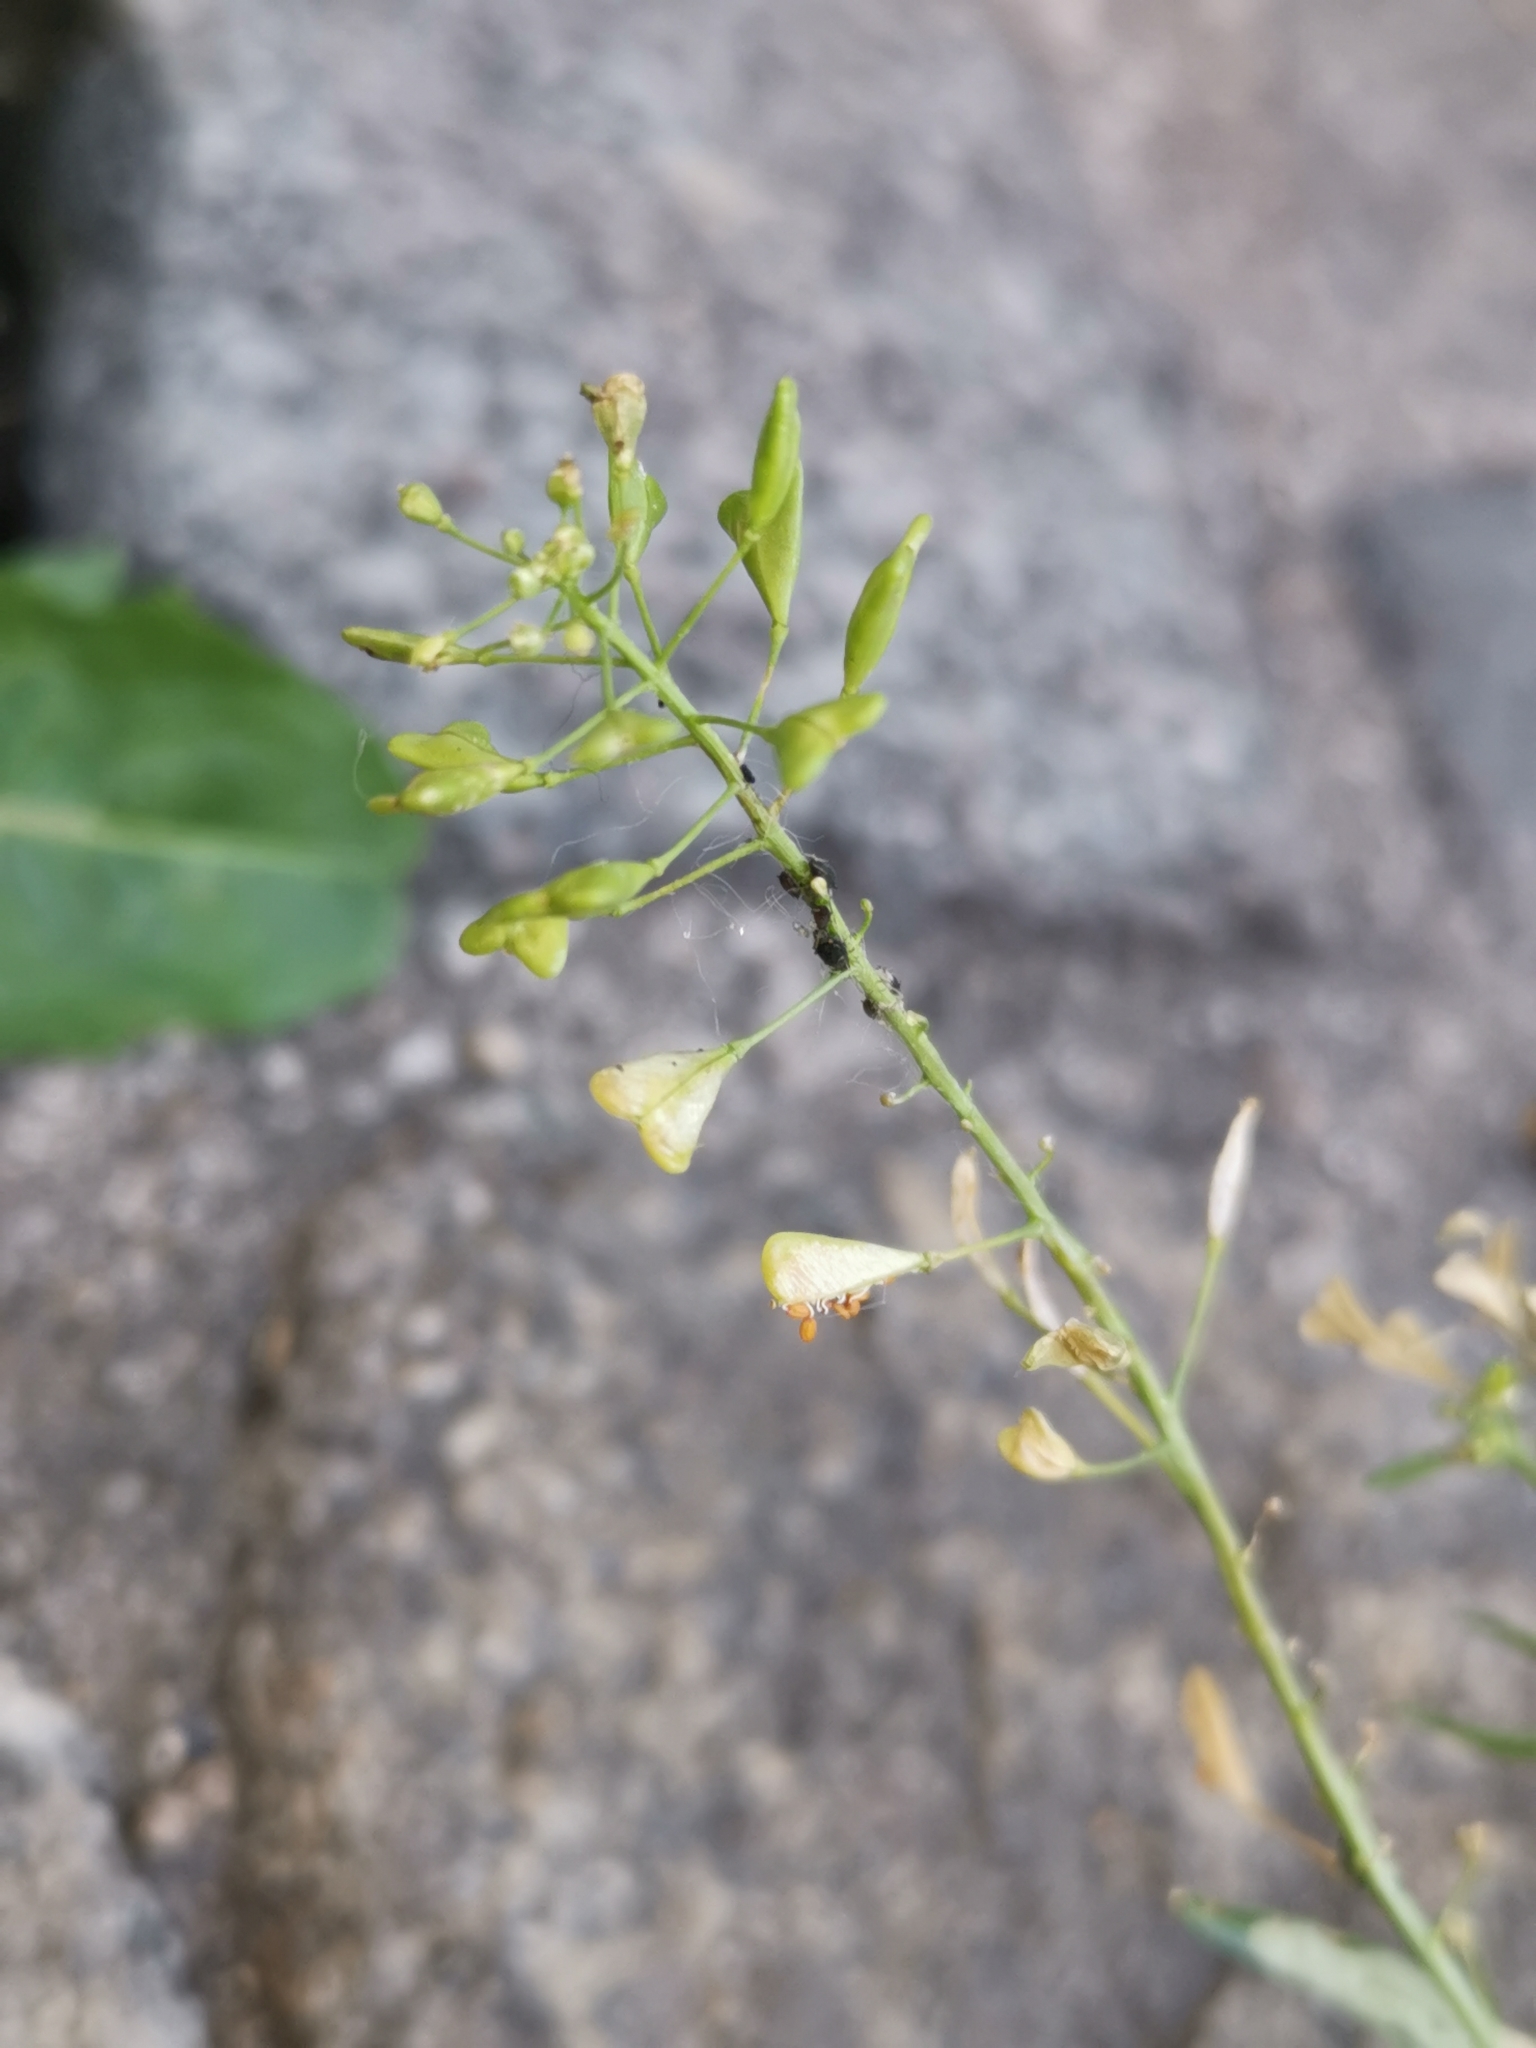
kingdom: Plantae
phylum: Tracheophyta
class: Magnoliopsida
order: Brassicales
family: Brassicaceae
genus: Capsella
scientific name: Capsella bursa-pastoris
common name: Shepherd's purse
